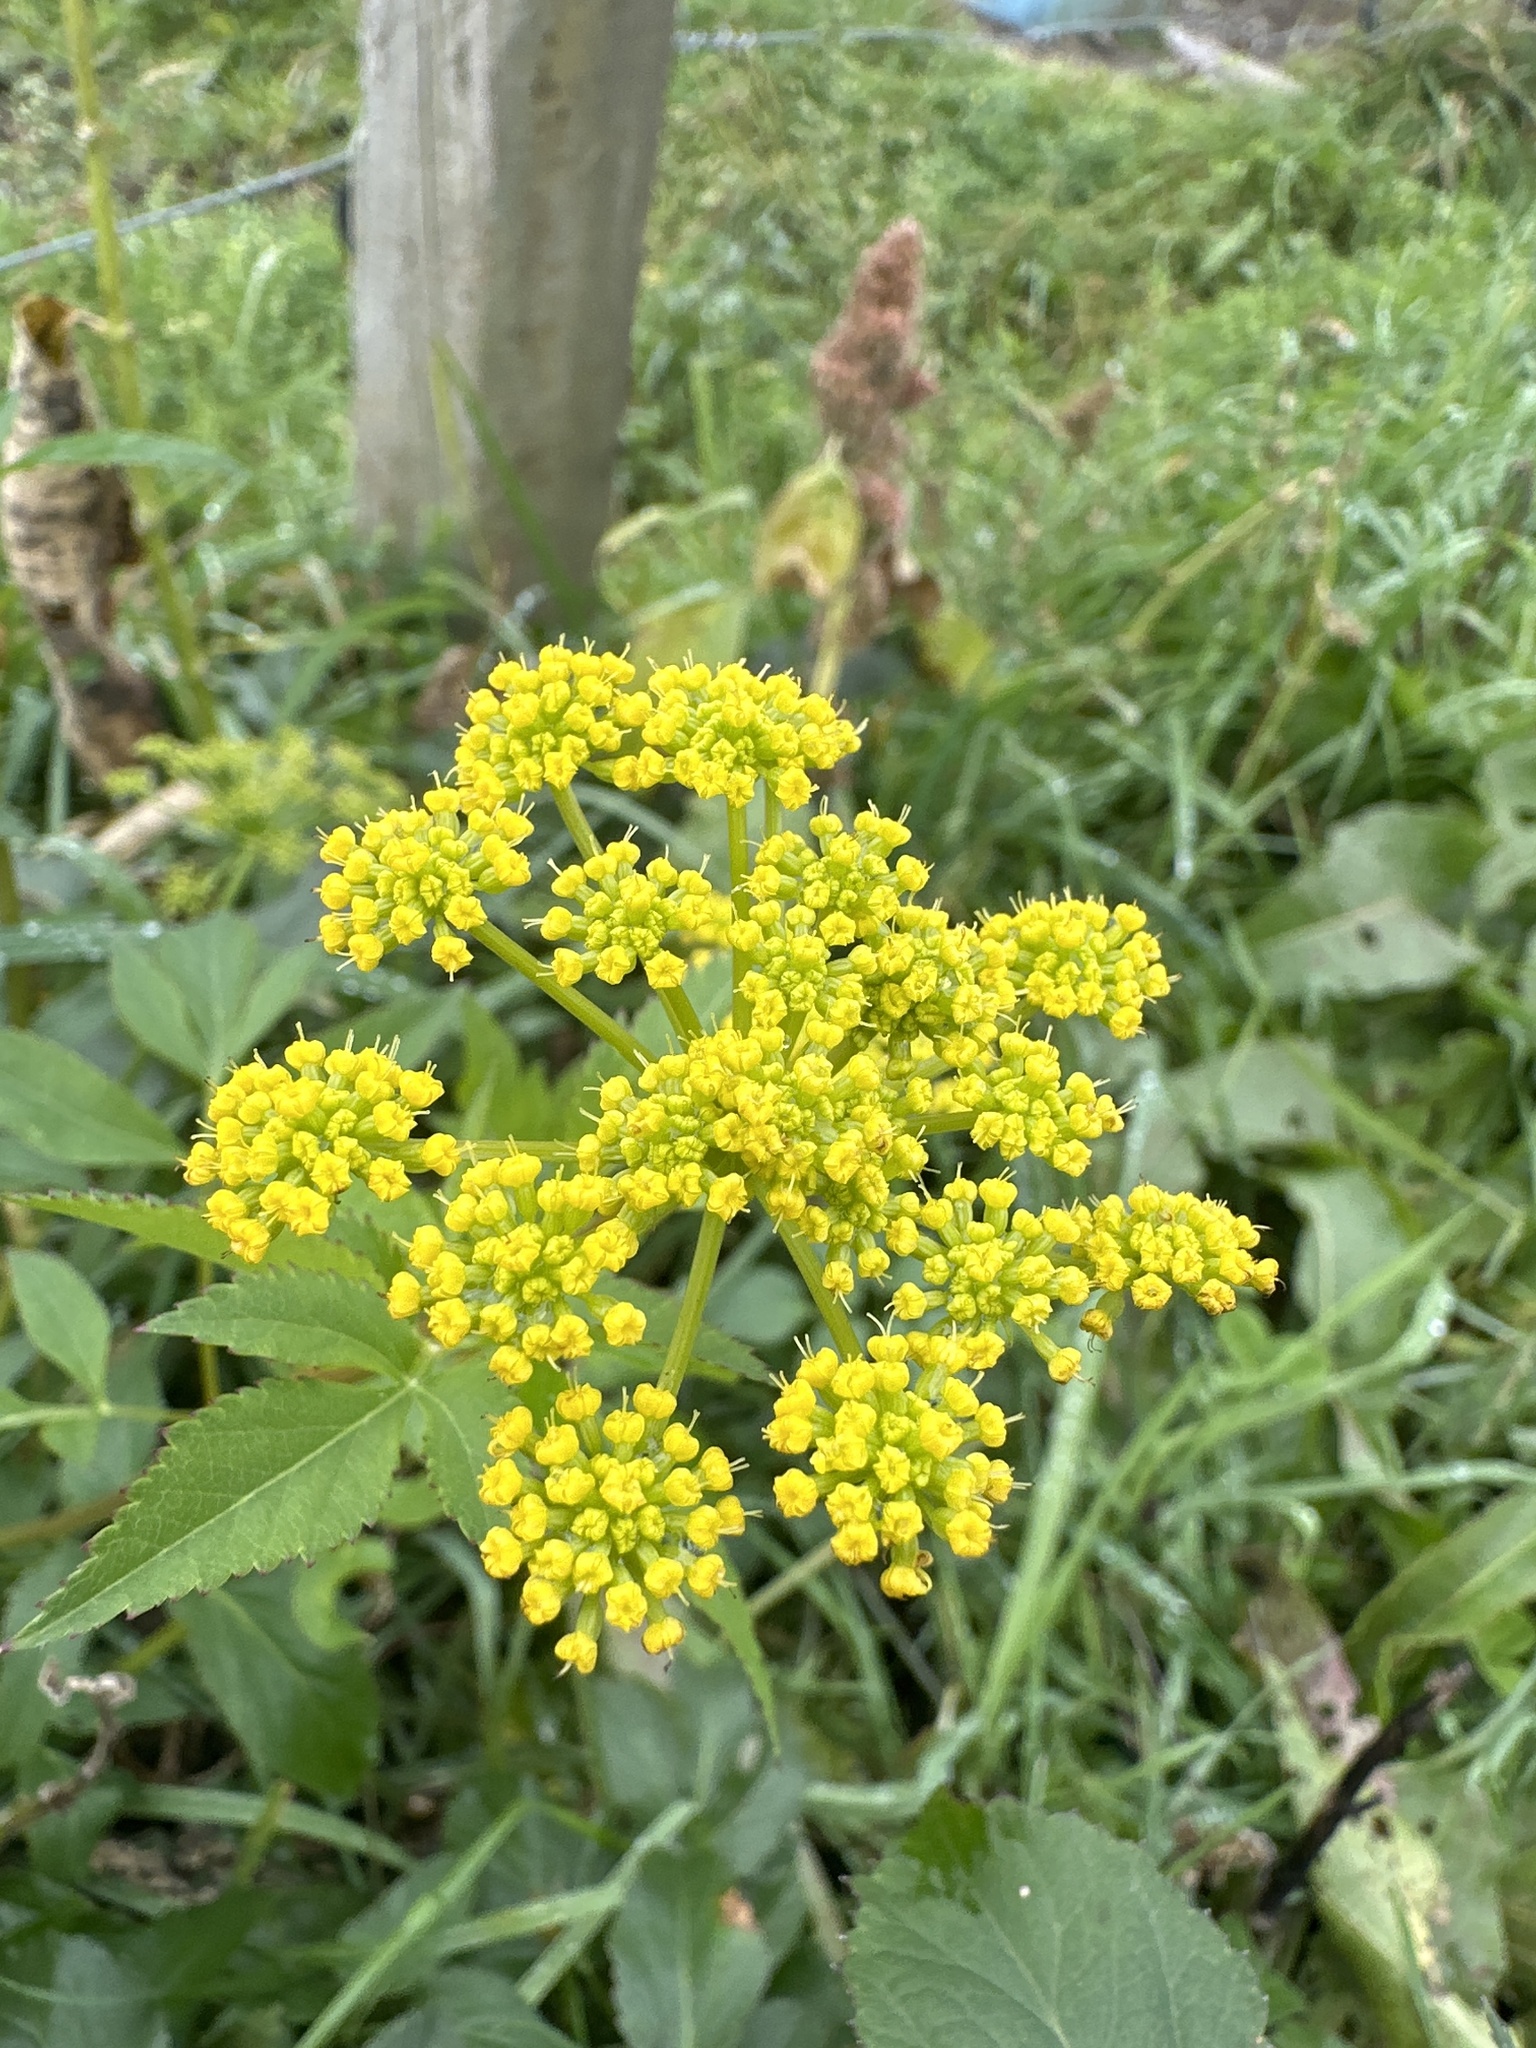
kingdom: Plantae
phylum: Tracheophyta
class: Magnoliopsida
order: Apiales
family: Apiaceae
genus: Zizia
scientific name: Zizia aurea
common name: Golden alexanders
